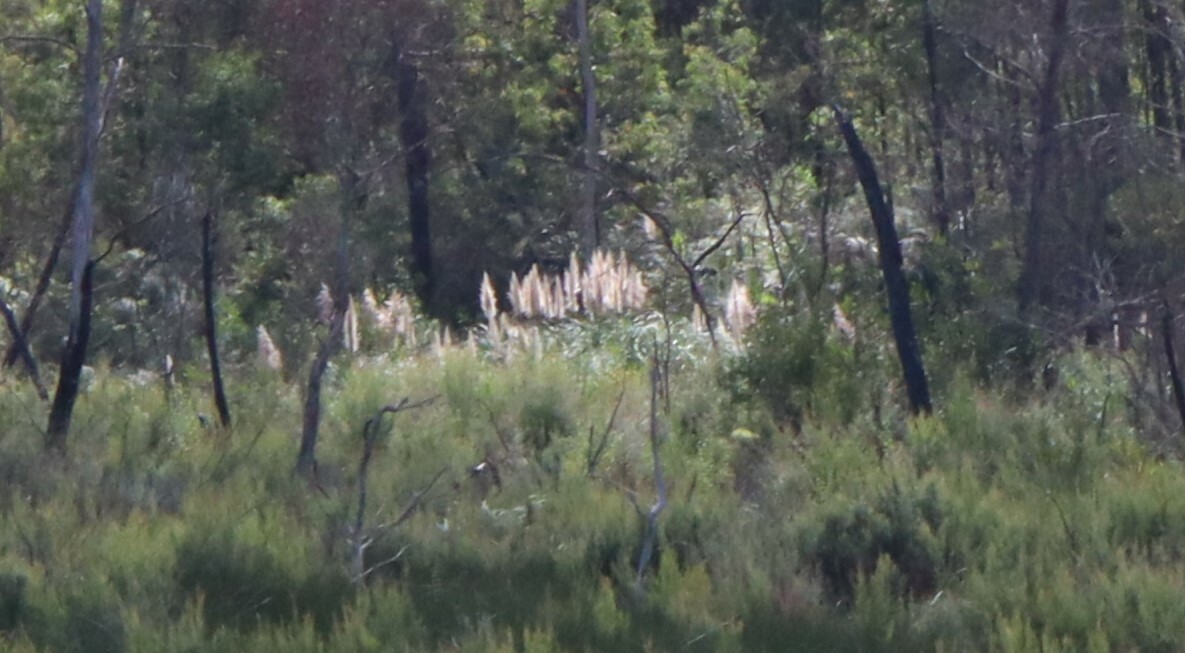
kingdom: Plantae
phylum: Tracheophyta
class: Liliopsida
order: Poales
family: Poaceae
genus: Cortaderia
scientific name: Cortaderia selloana
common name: Uruguayan pampas grass
